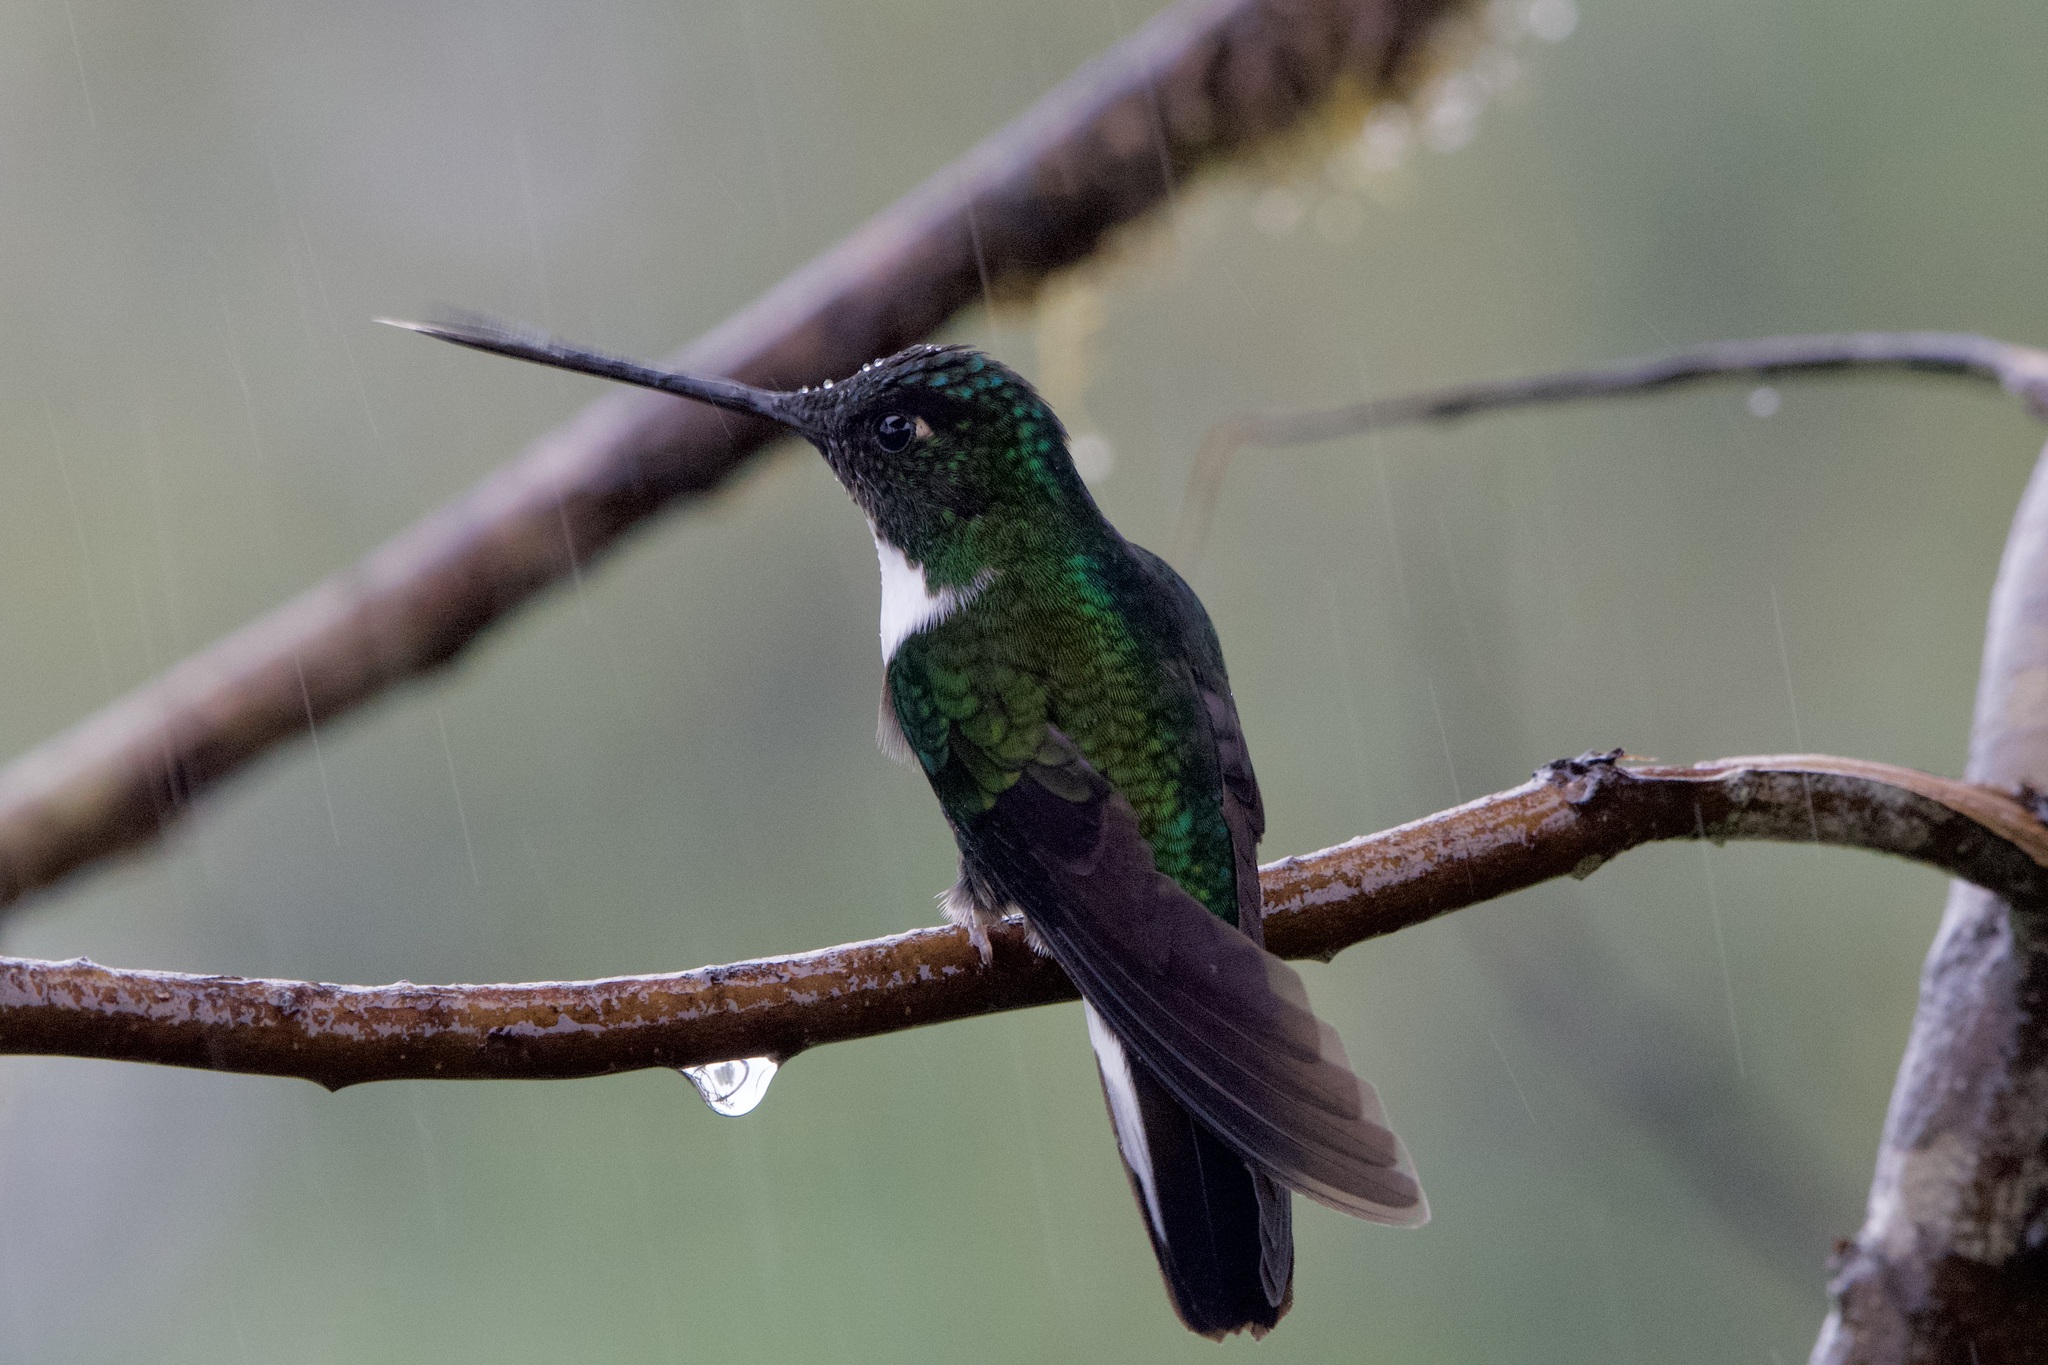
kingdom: Animalia
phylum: Chordata
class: Aves
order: Apodiformes
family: Trochilidae
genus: Coeligena
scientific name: Coeligena torquata
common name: Collared inca
